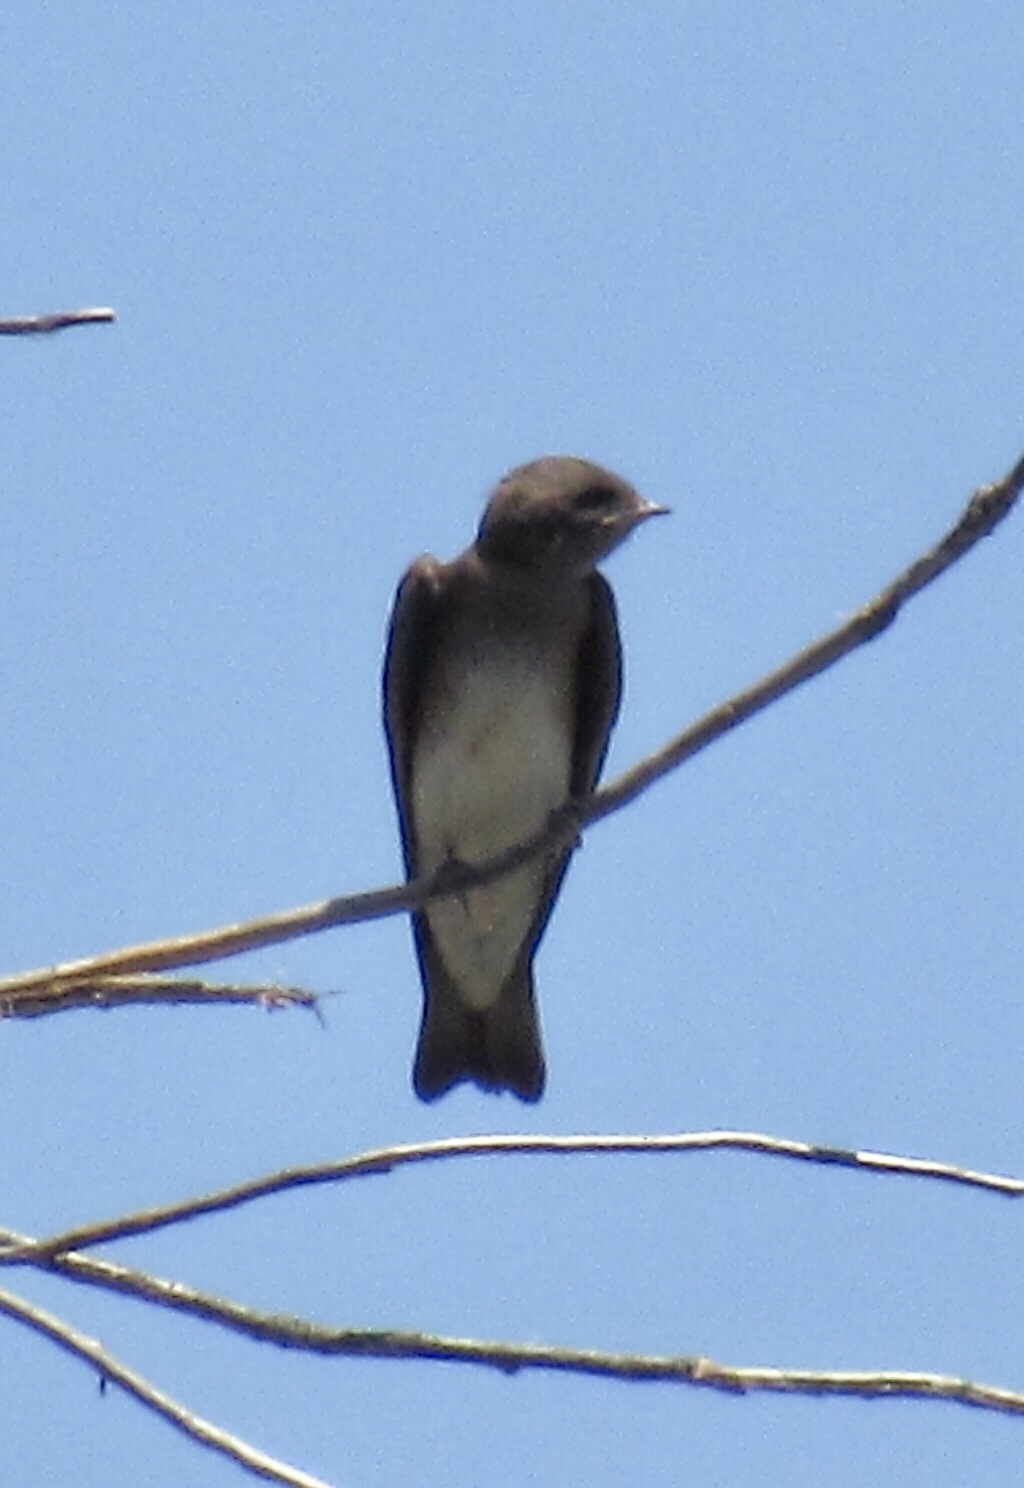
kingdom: Animalia
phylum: Chordata
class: Aves
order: Passeriformes
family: Hirundinidae
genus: Stelgidopteryx
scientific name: Stelgidopteryx serripennis
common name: Northern rough-winged swallow
